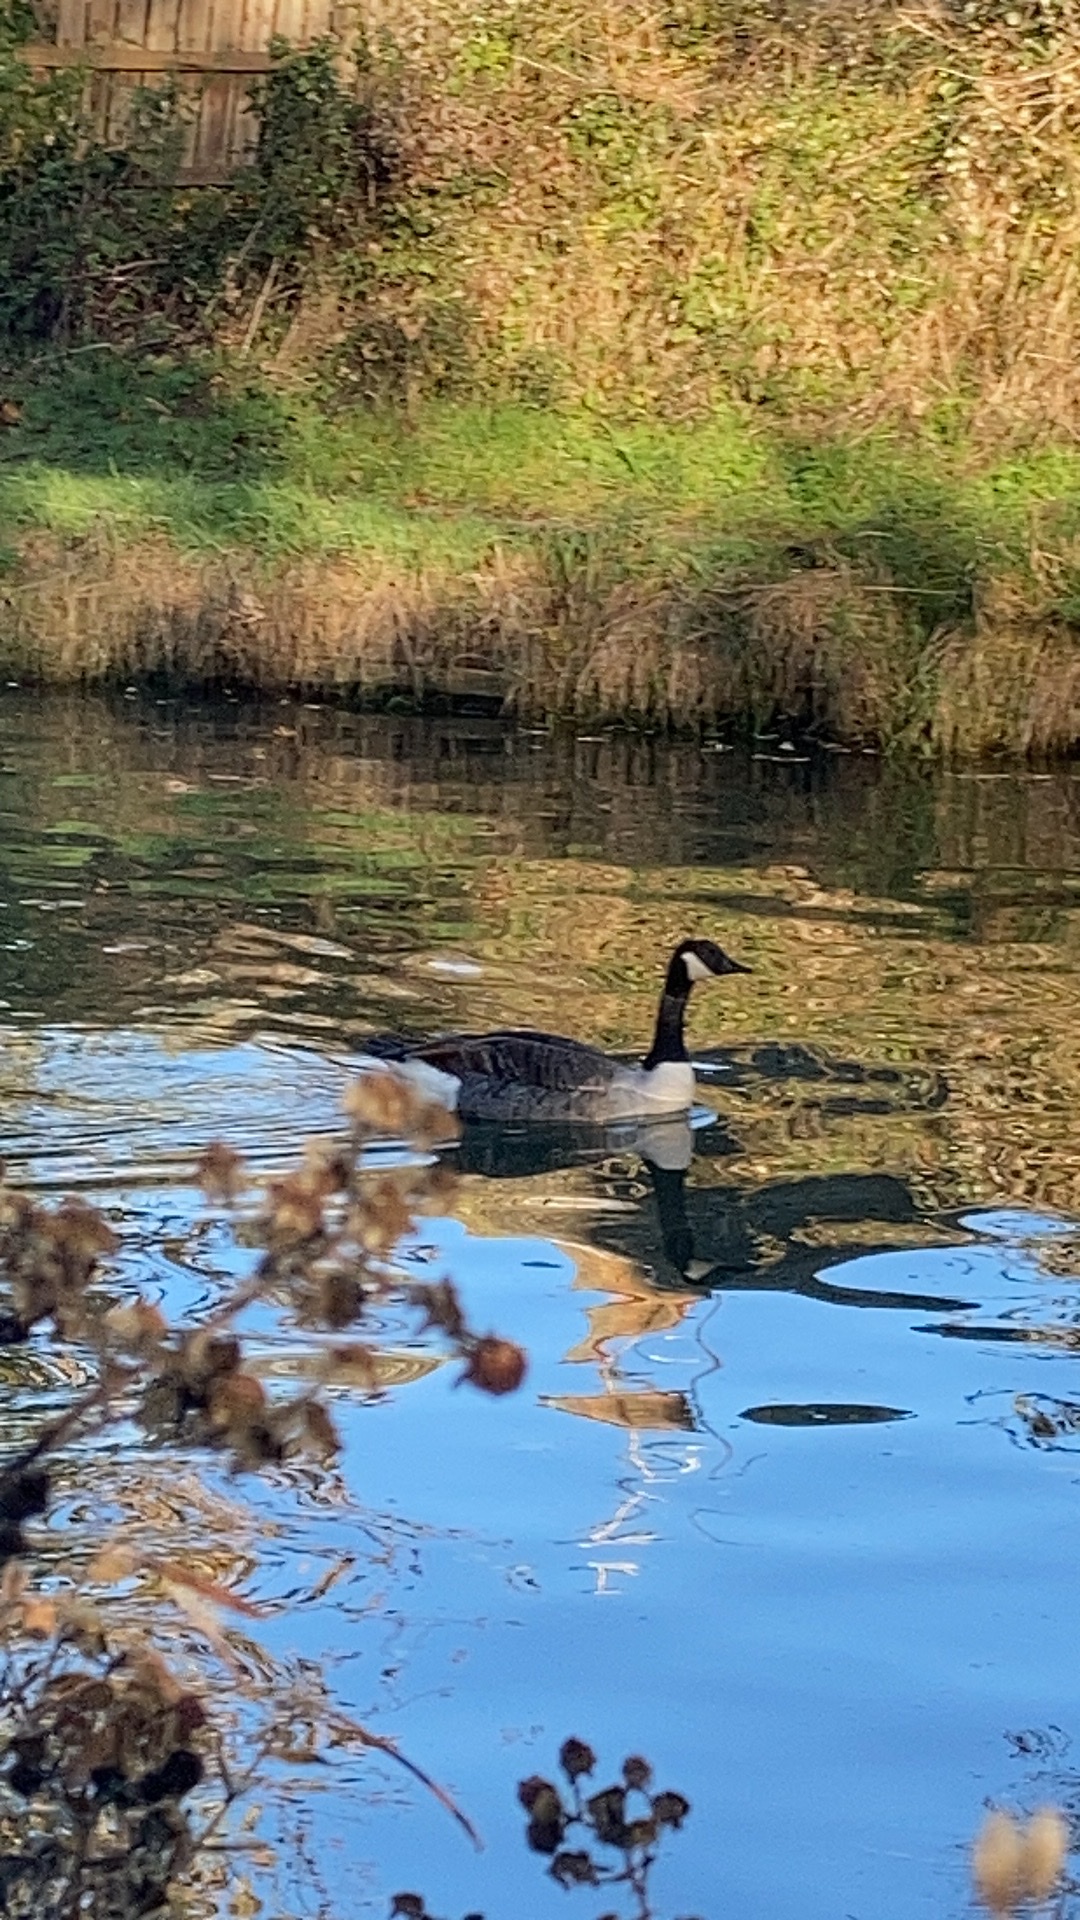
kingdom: Animalia
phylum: Chordata
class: Aves
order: Anseriformes
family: Anatidae
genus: Branta
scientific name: Branta canadensis
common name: Canada goose
